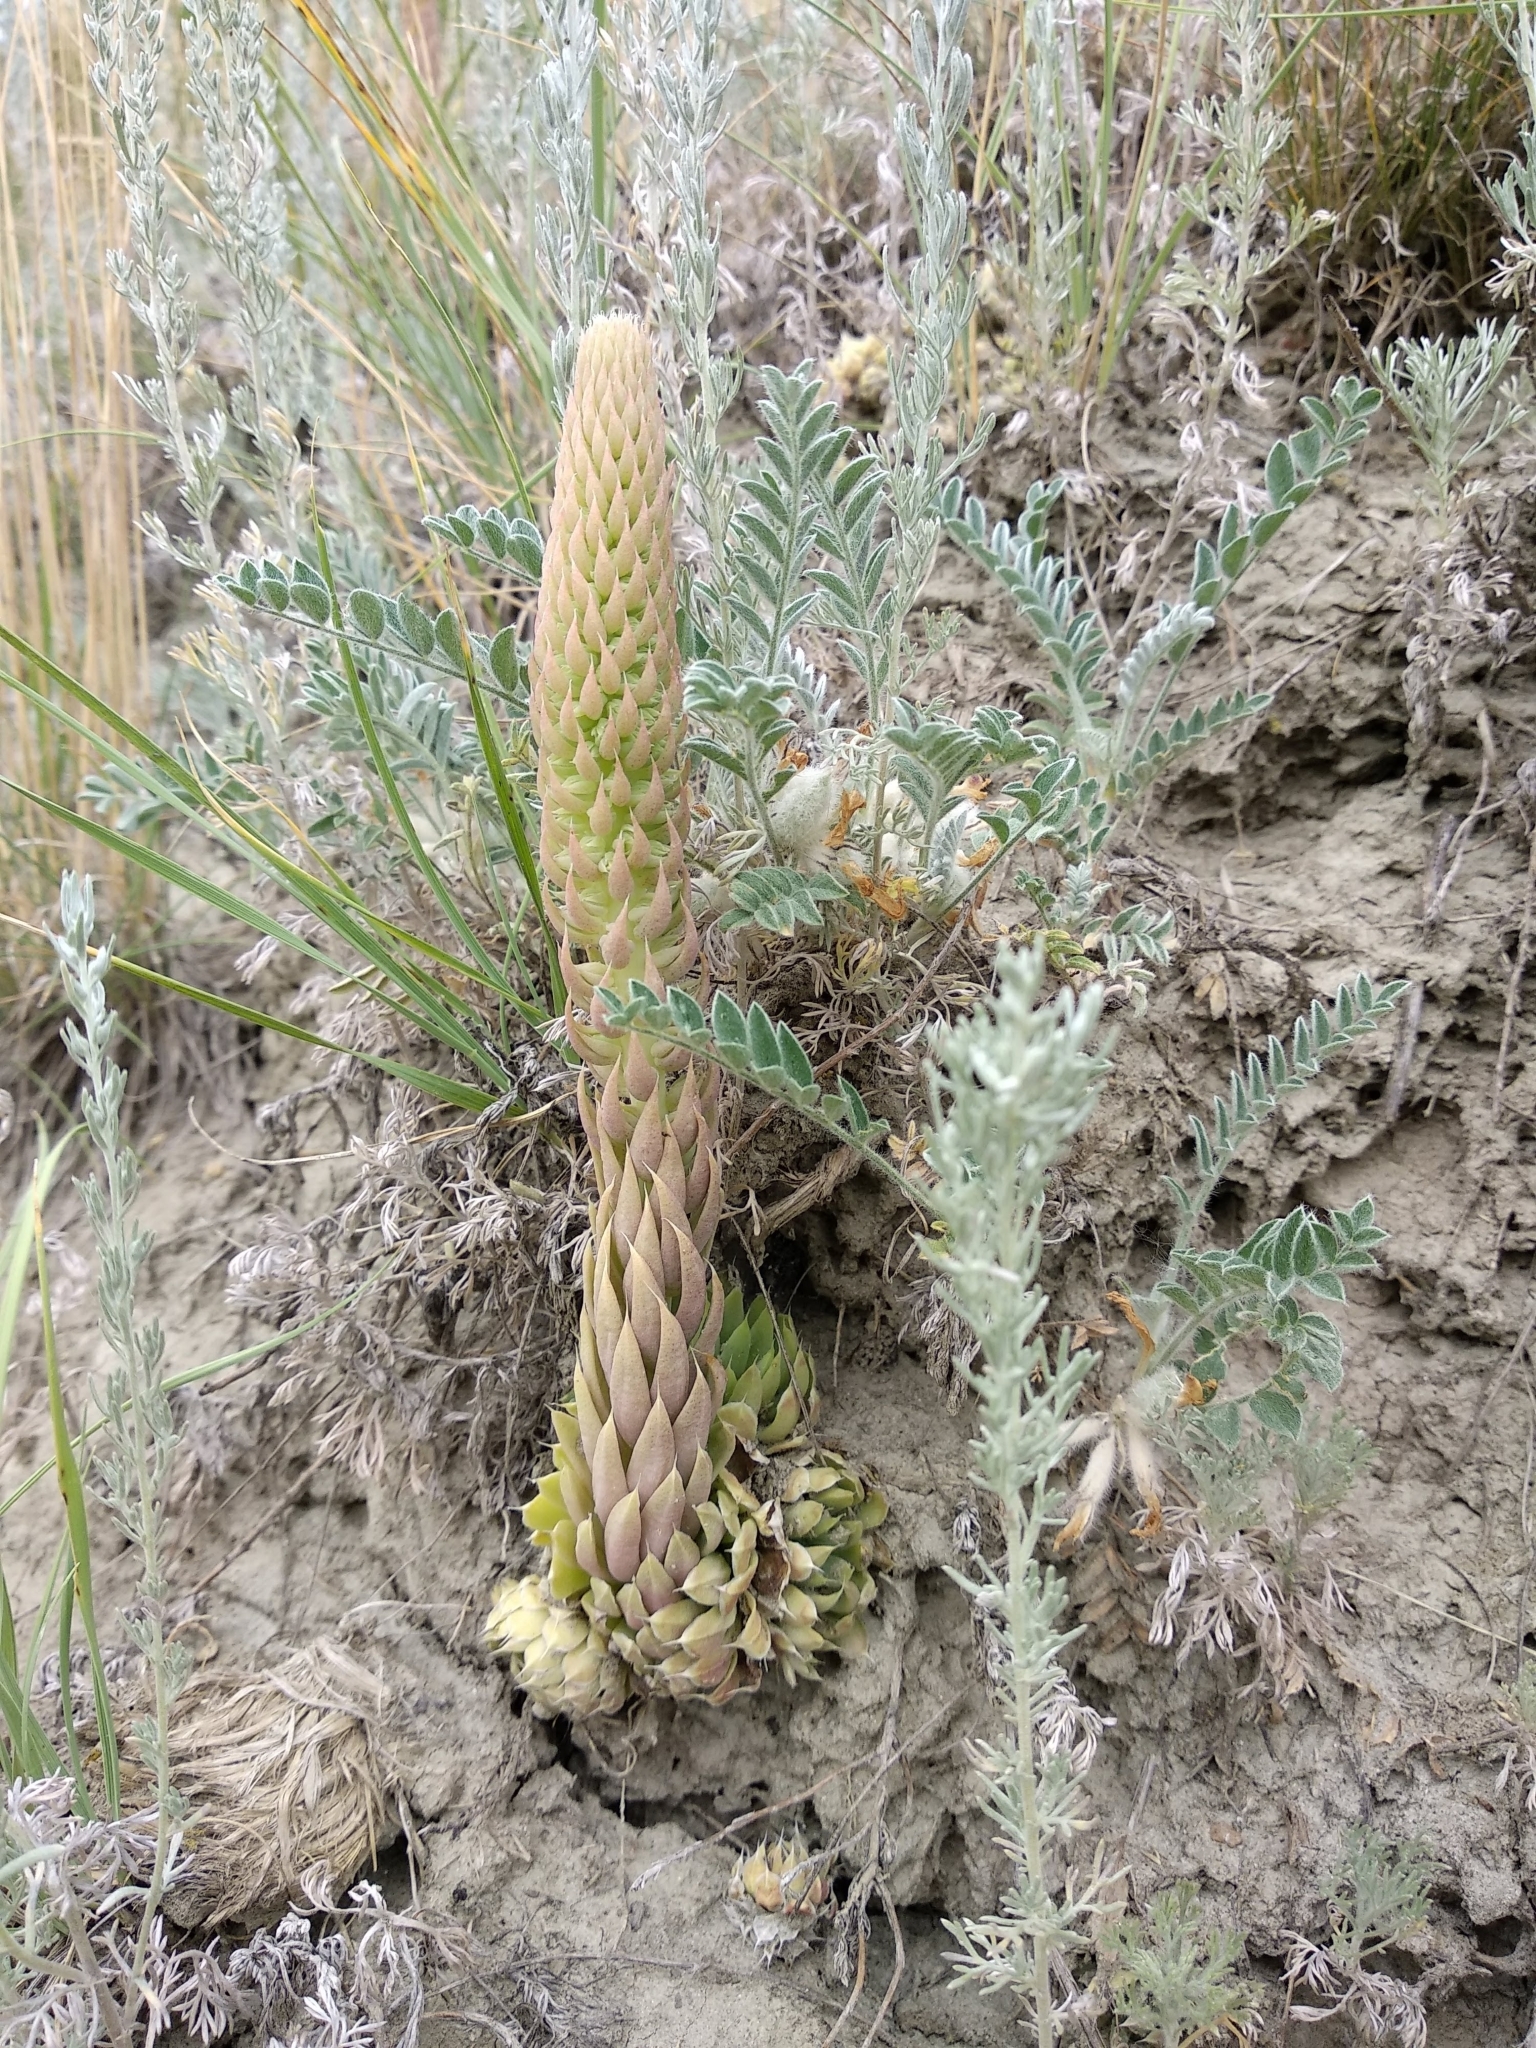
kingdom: Plantae
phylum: Tracheophyta
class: Magnoliopsida
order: Saxifragales
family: Crassulaceae
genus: Orostachys
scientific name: Orostachys spinosa
